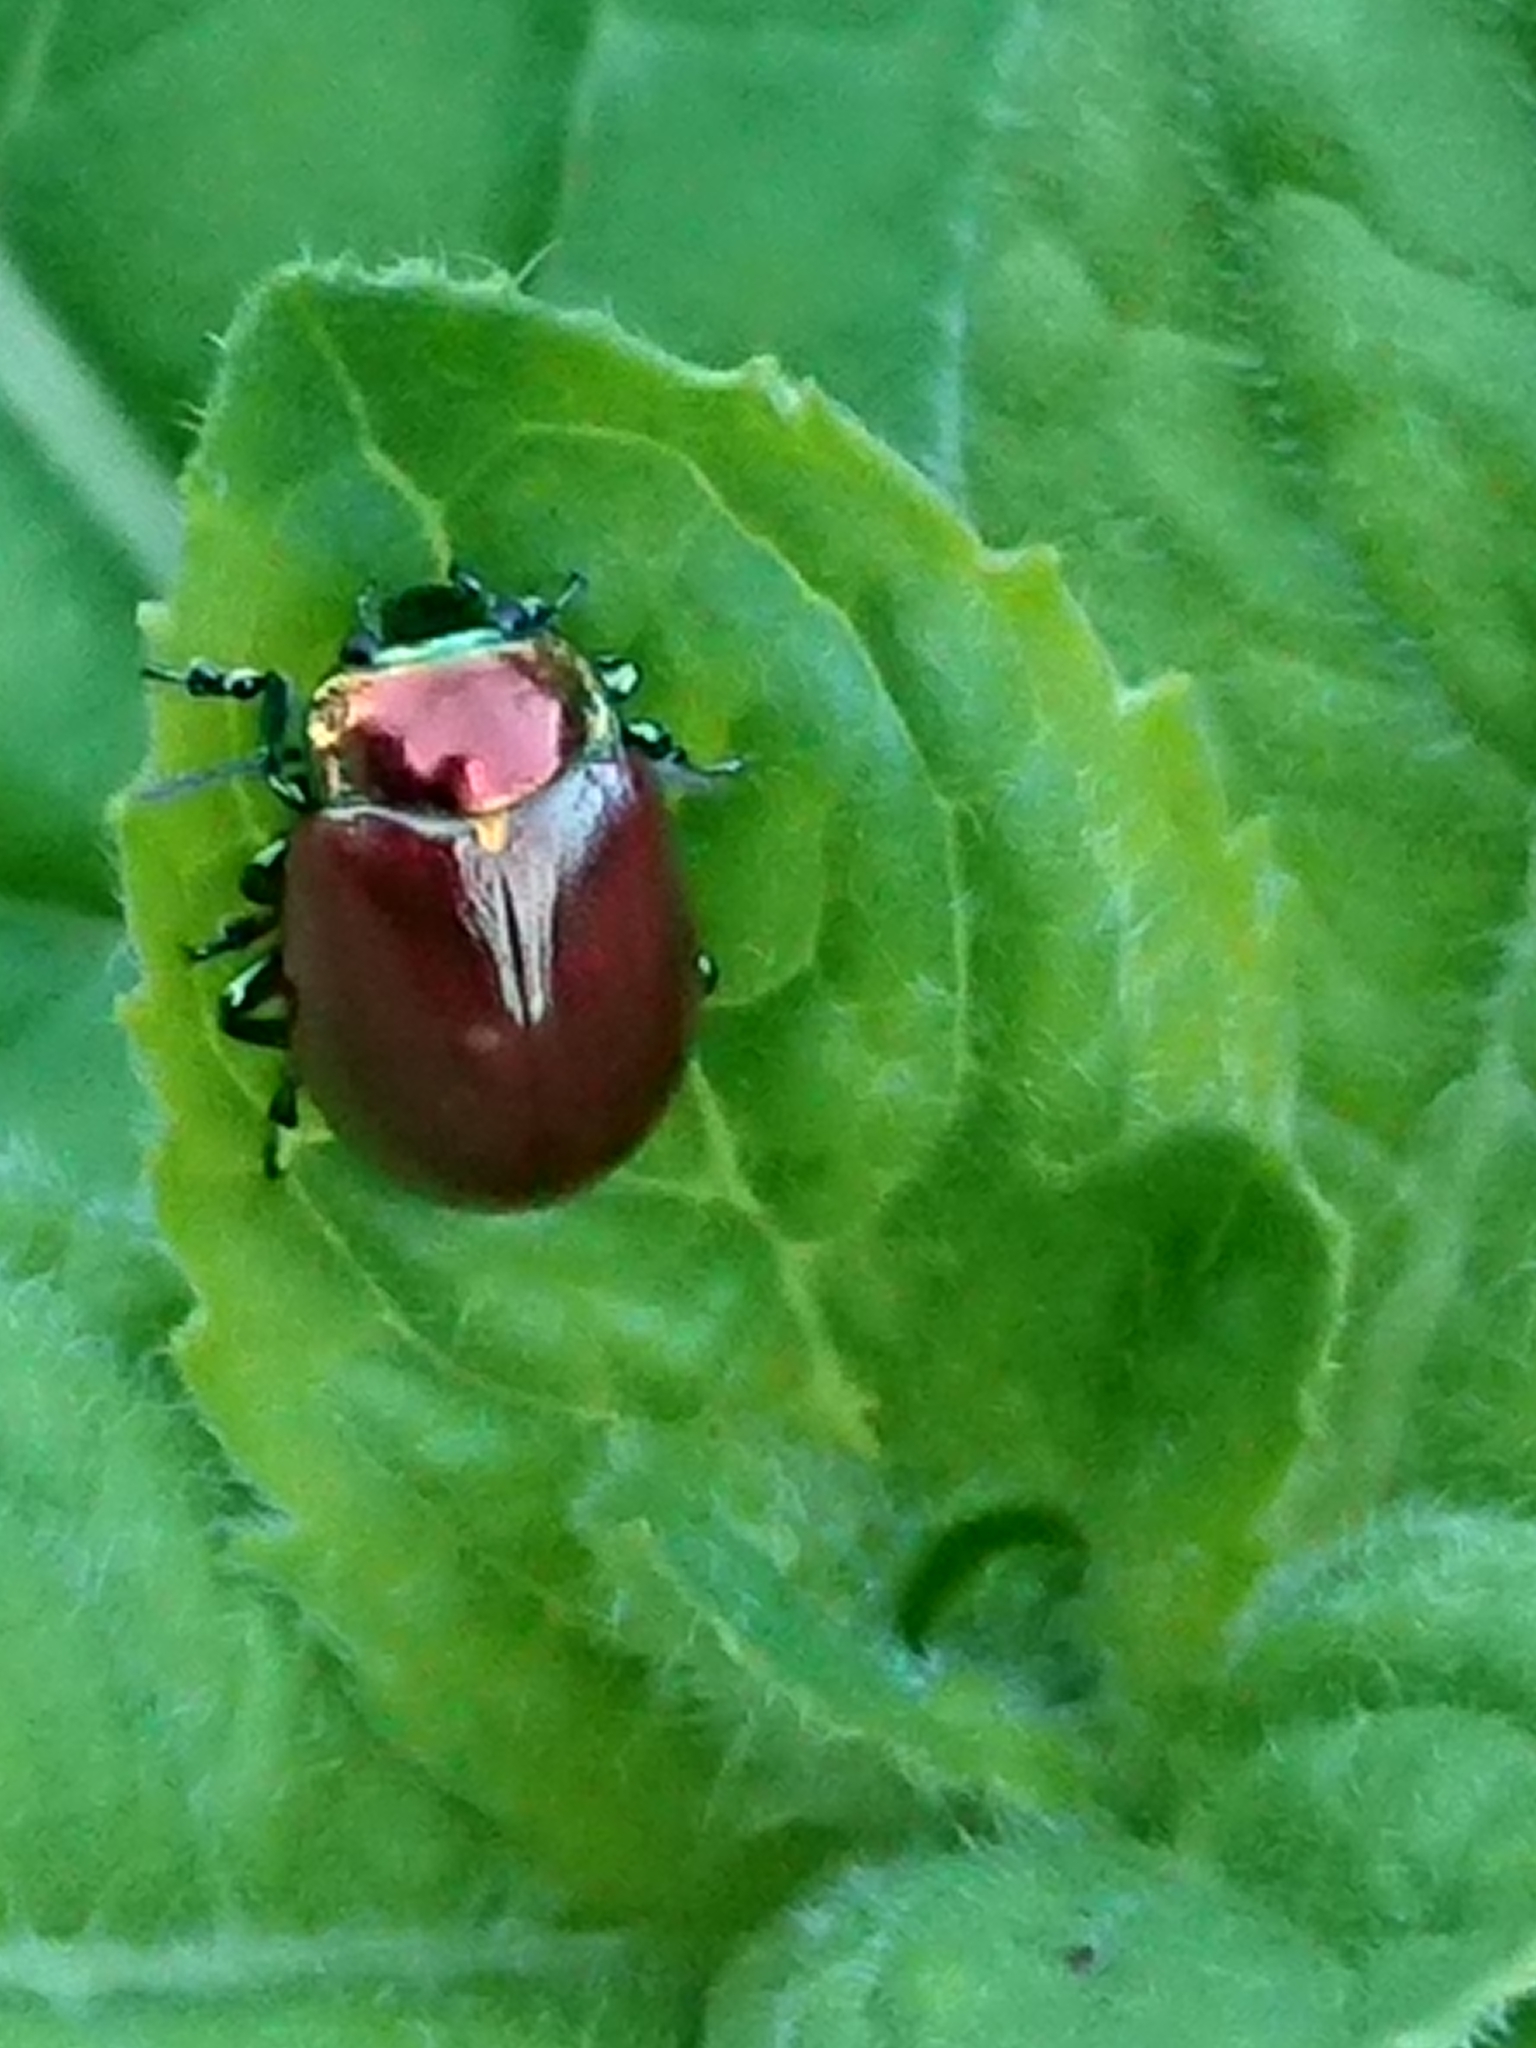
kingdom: Animalia
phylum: Arthropoda
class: Insecta
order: Coleoptera
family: Chrysomelidae
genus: Chrysomela
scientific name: Chrysomela polita
